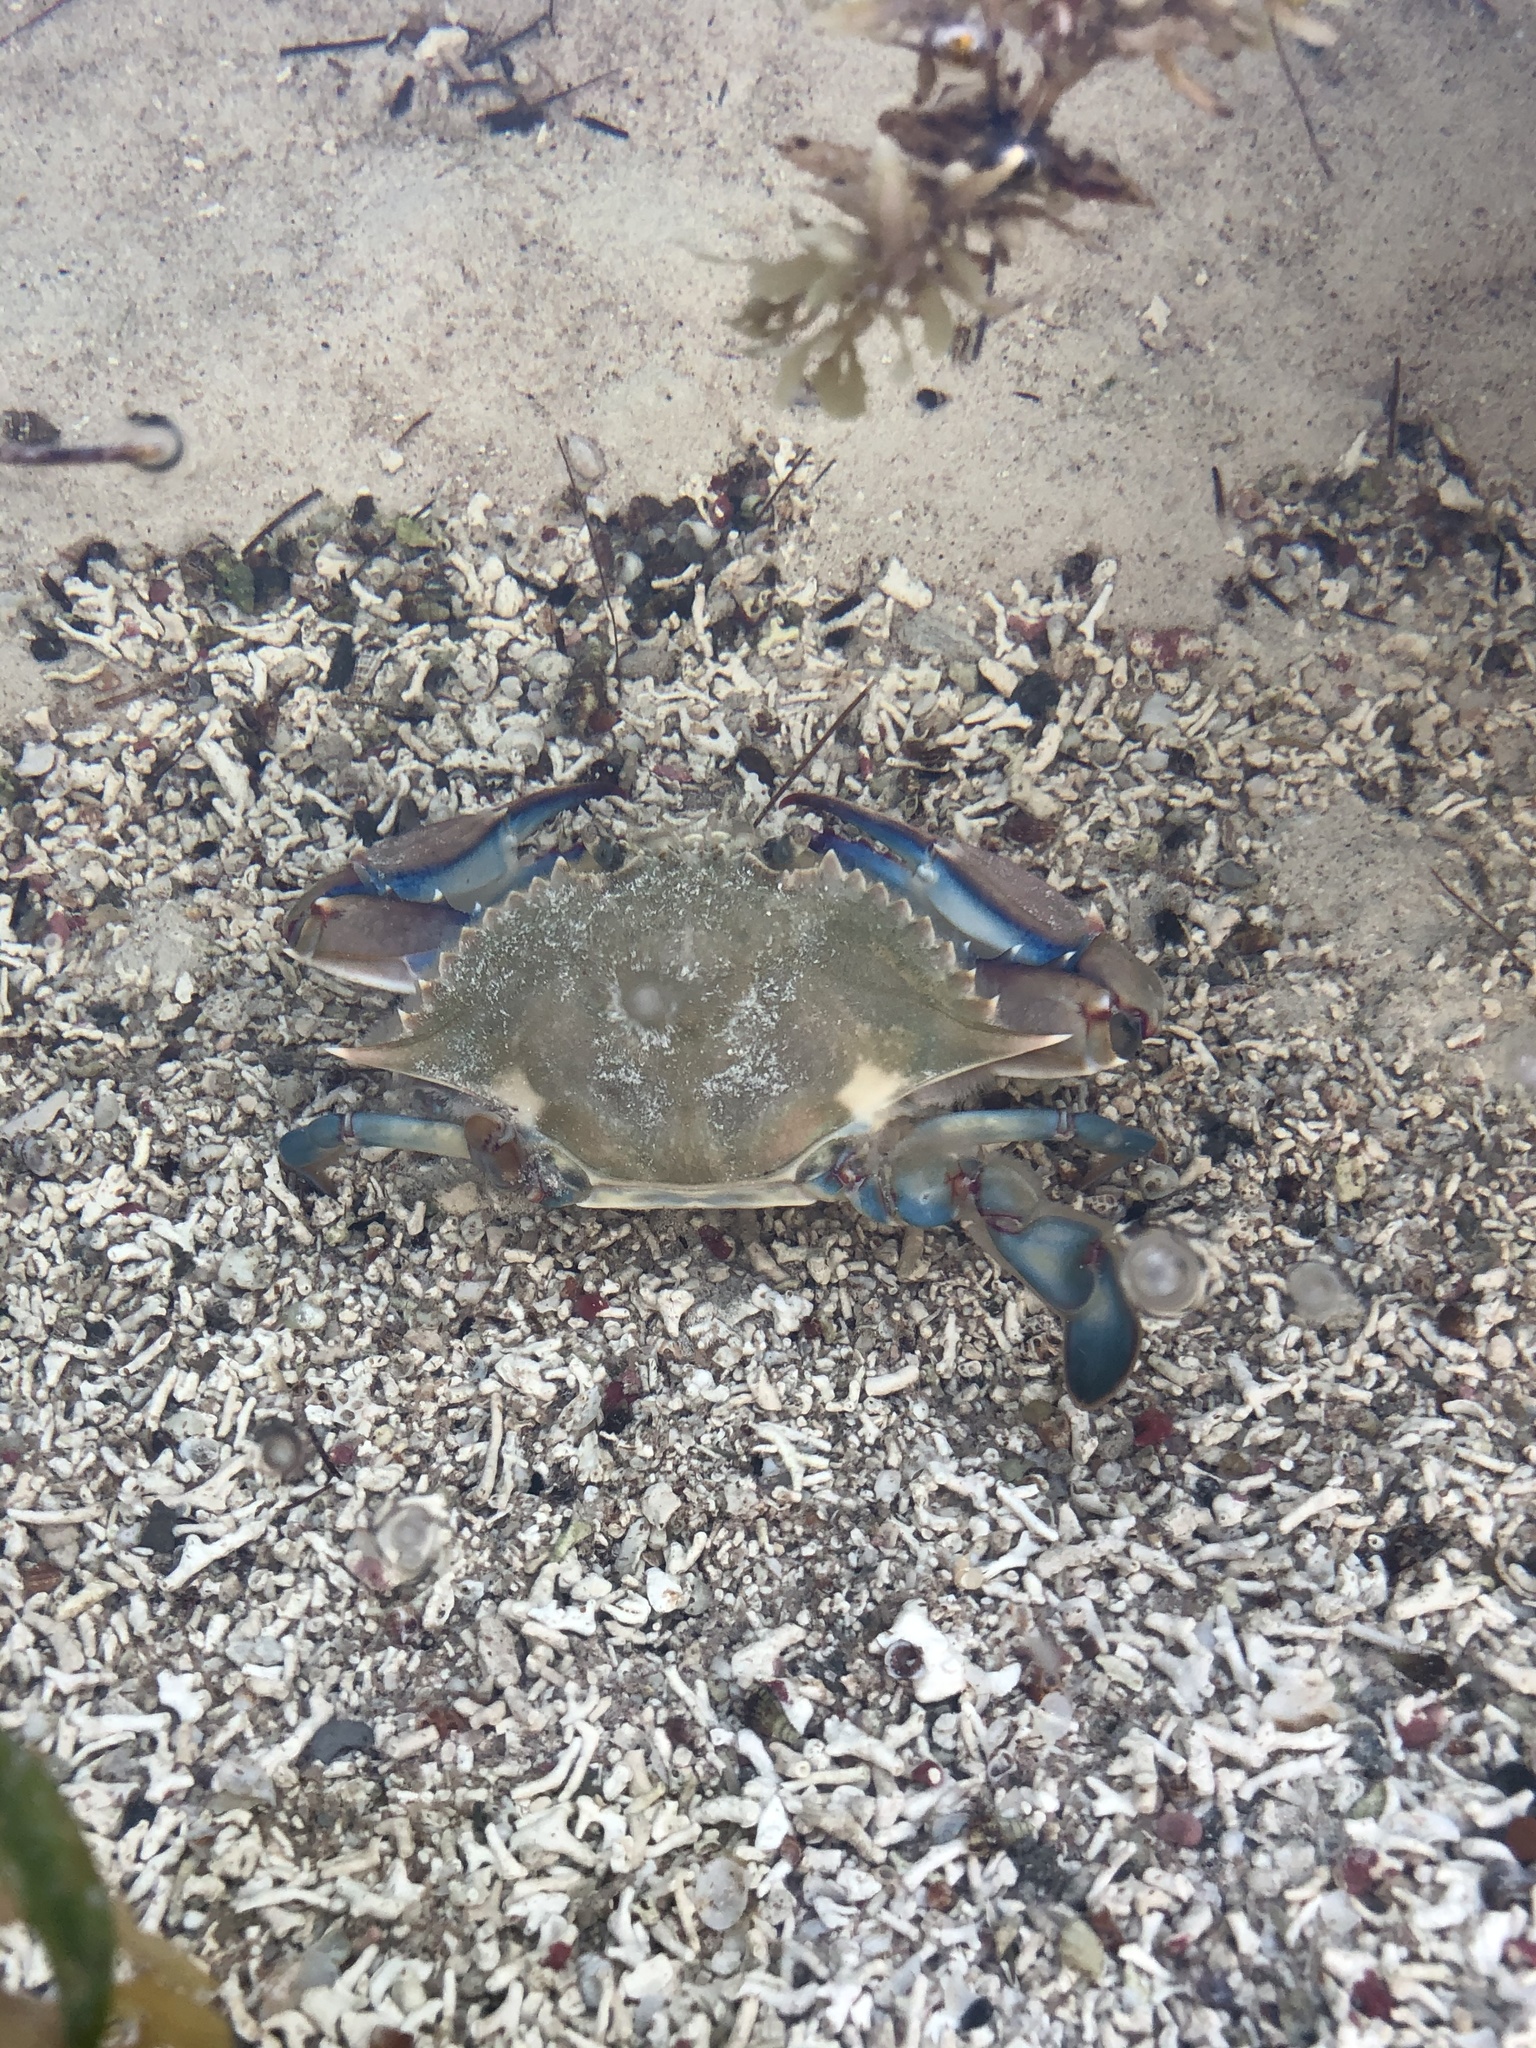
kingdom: Animalia
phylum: Arthropoda
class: Malacostraca
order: Decapoda
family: Portunidae
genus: Callinectes
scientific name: Callinectes danae
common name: Dana swimming crab
